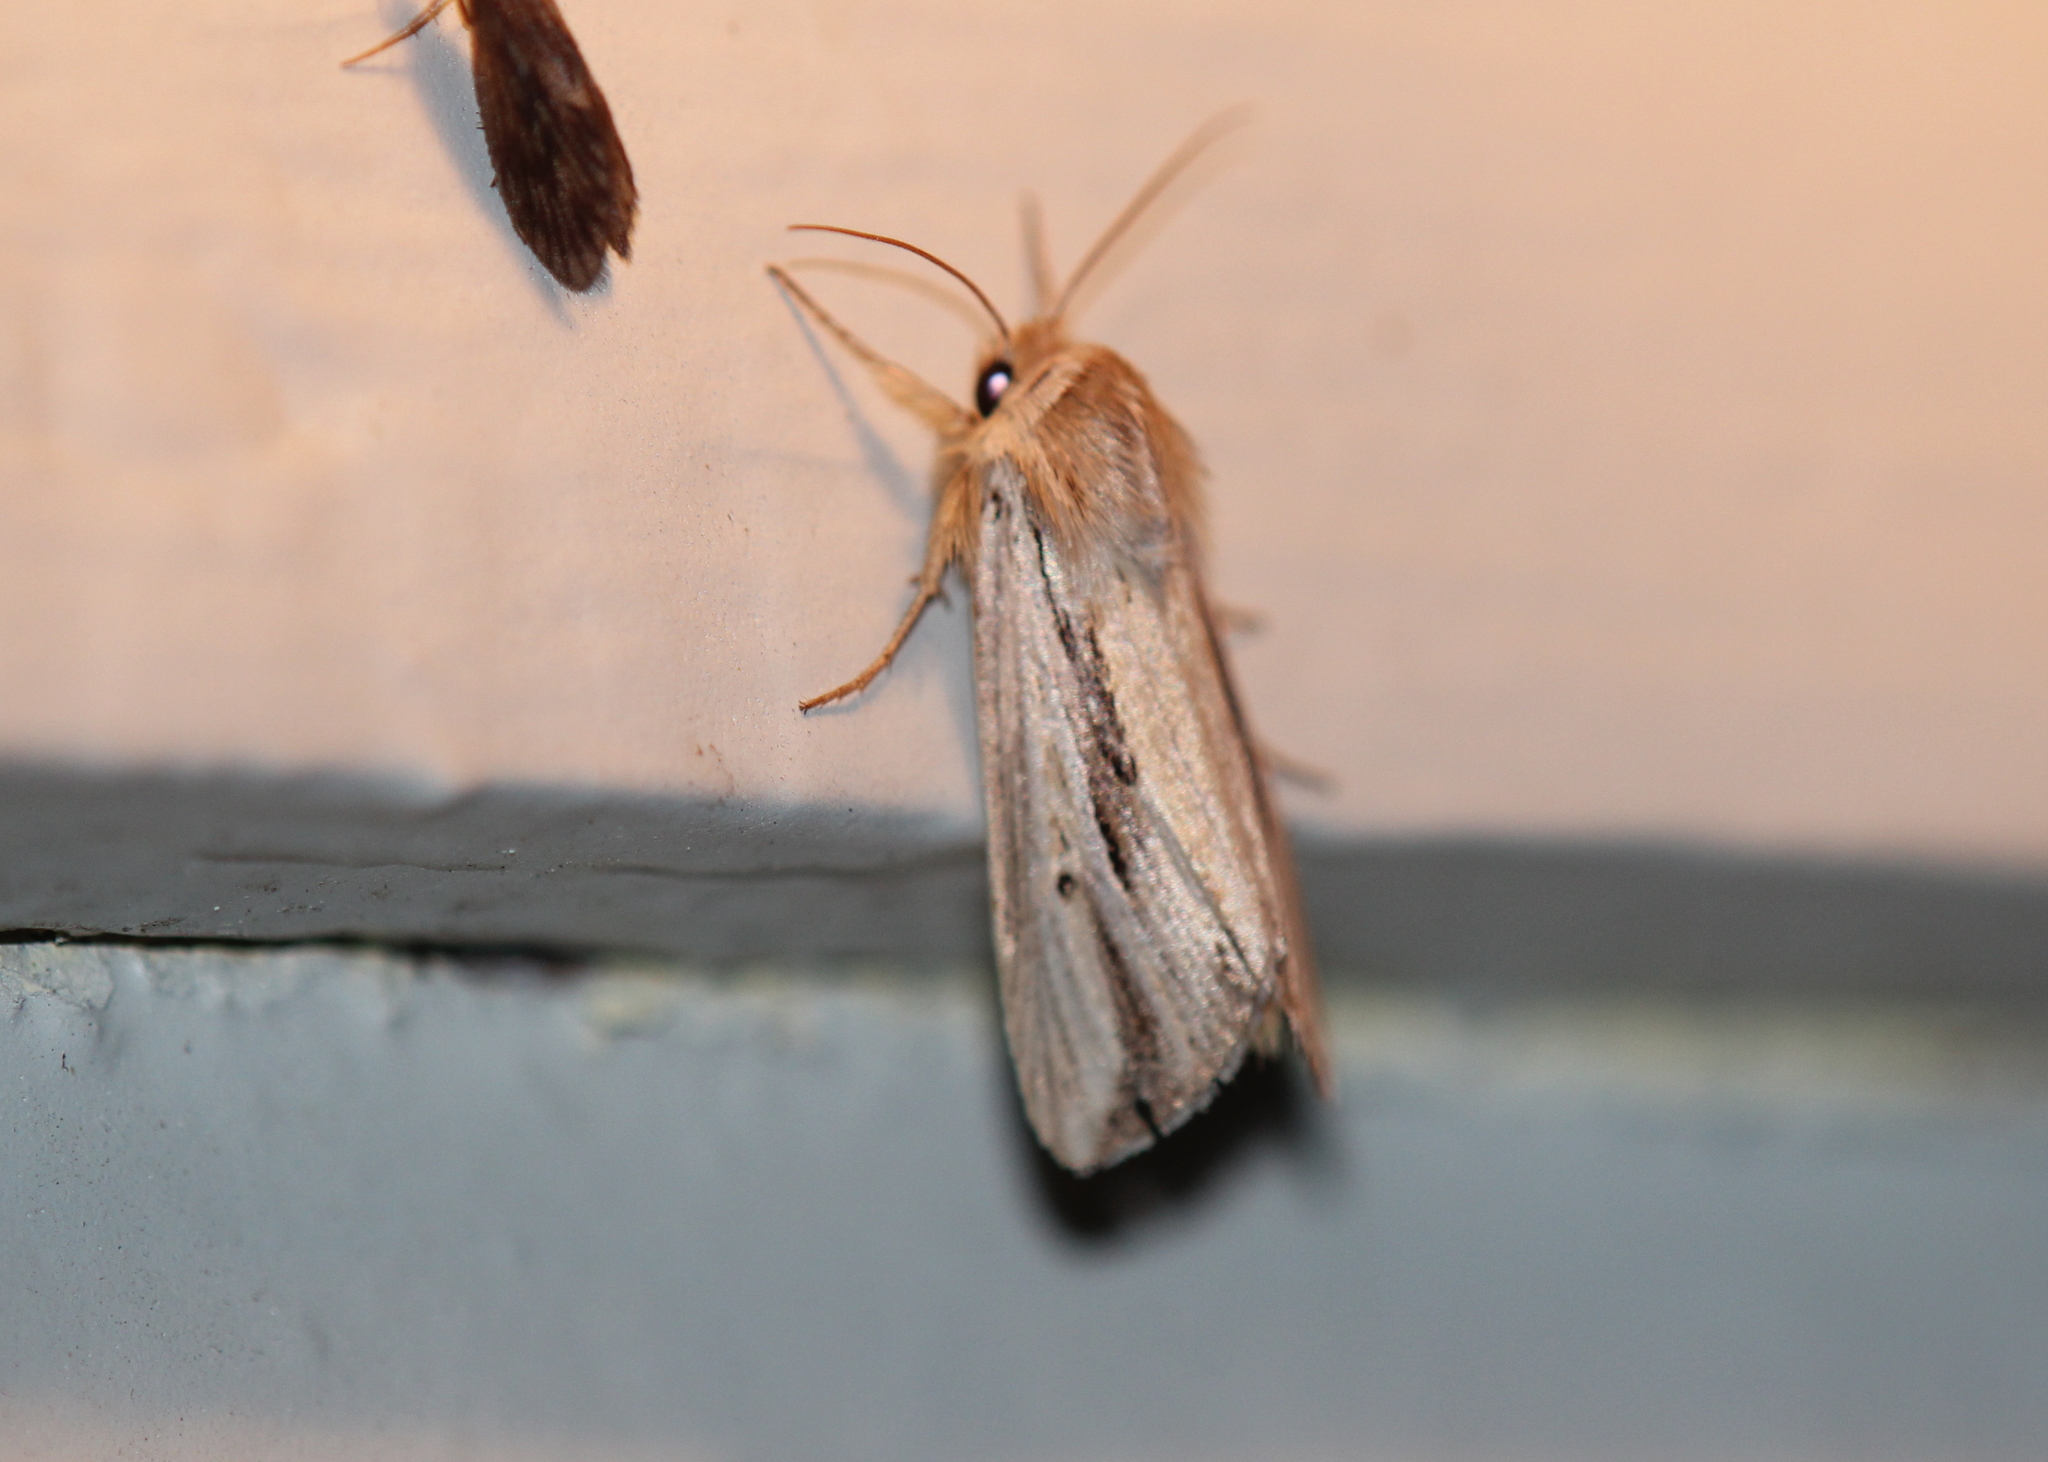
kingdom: Animalia
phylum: Arthropoda
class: Insecta
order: Lepidoptera
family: Noctuidae
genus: Dargida
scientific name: Dargida diffusa
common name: Wheat head armyworm
